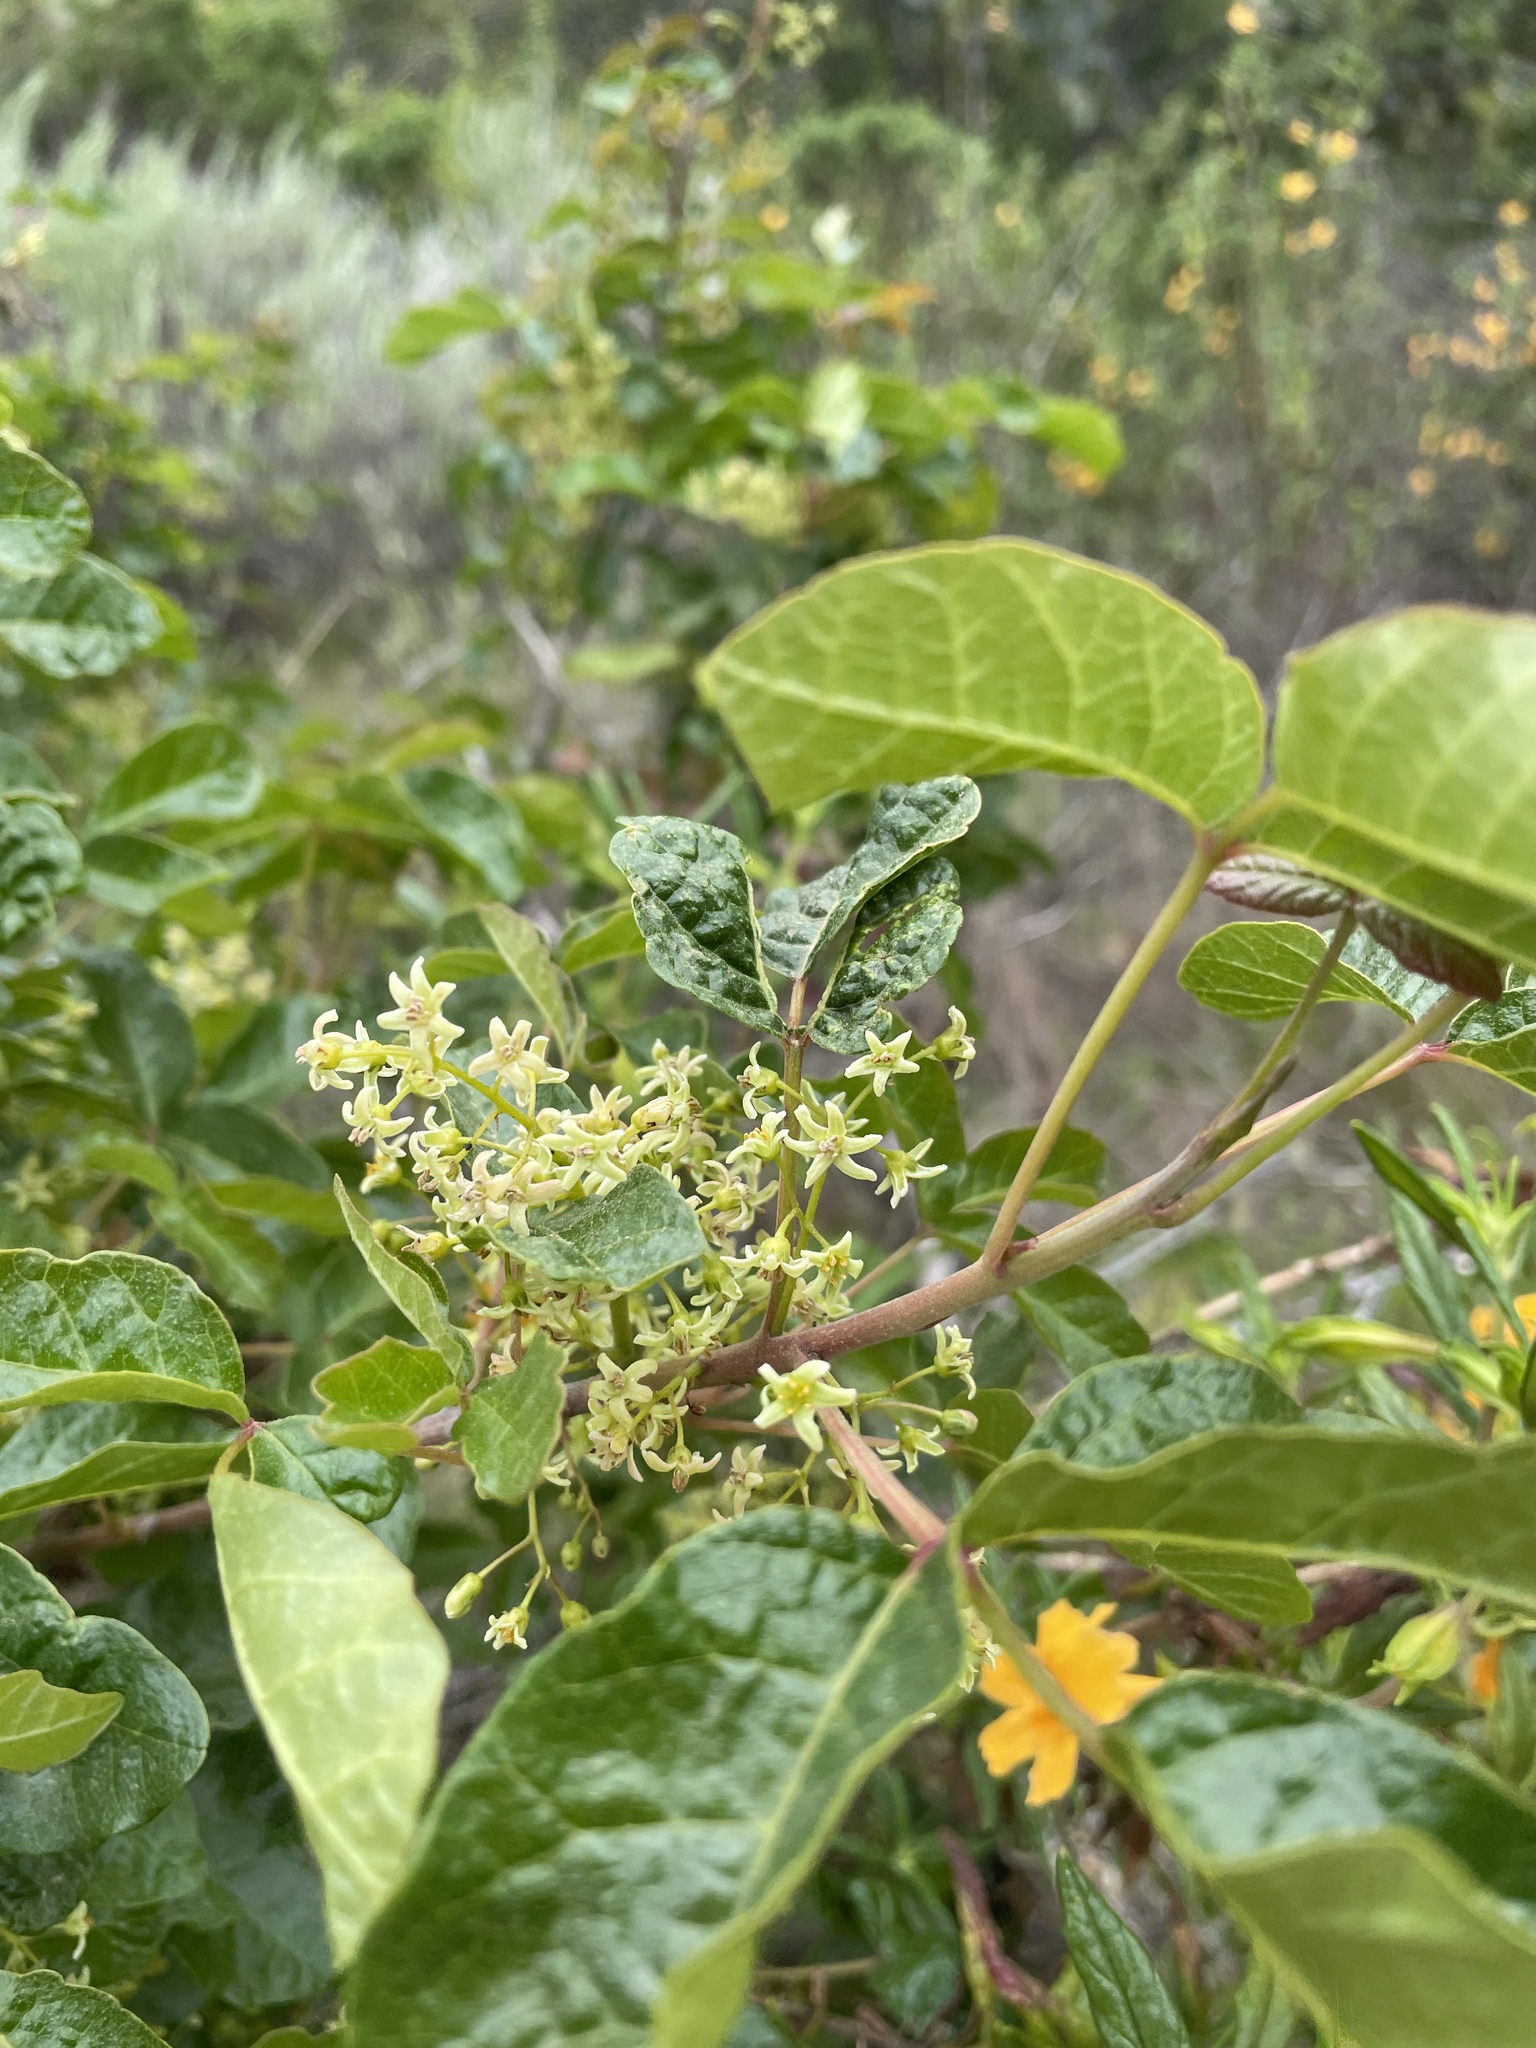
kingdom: Plantae
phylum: Tracheophyta
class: Magnoliopsida
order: Sapindales
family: Anacardiaceae
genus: Toxicodendron
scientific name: Toxicodendron diversilobum
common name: Pacific poison-oak
